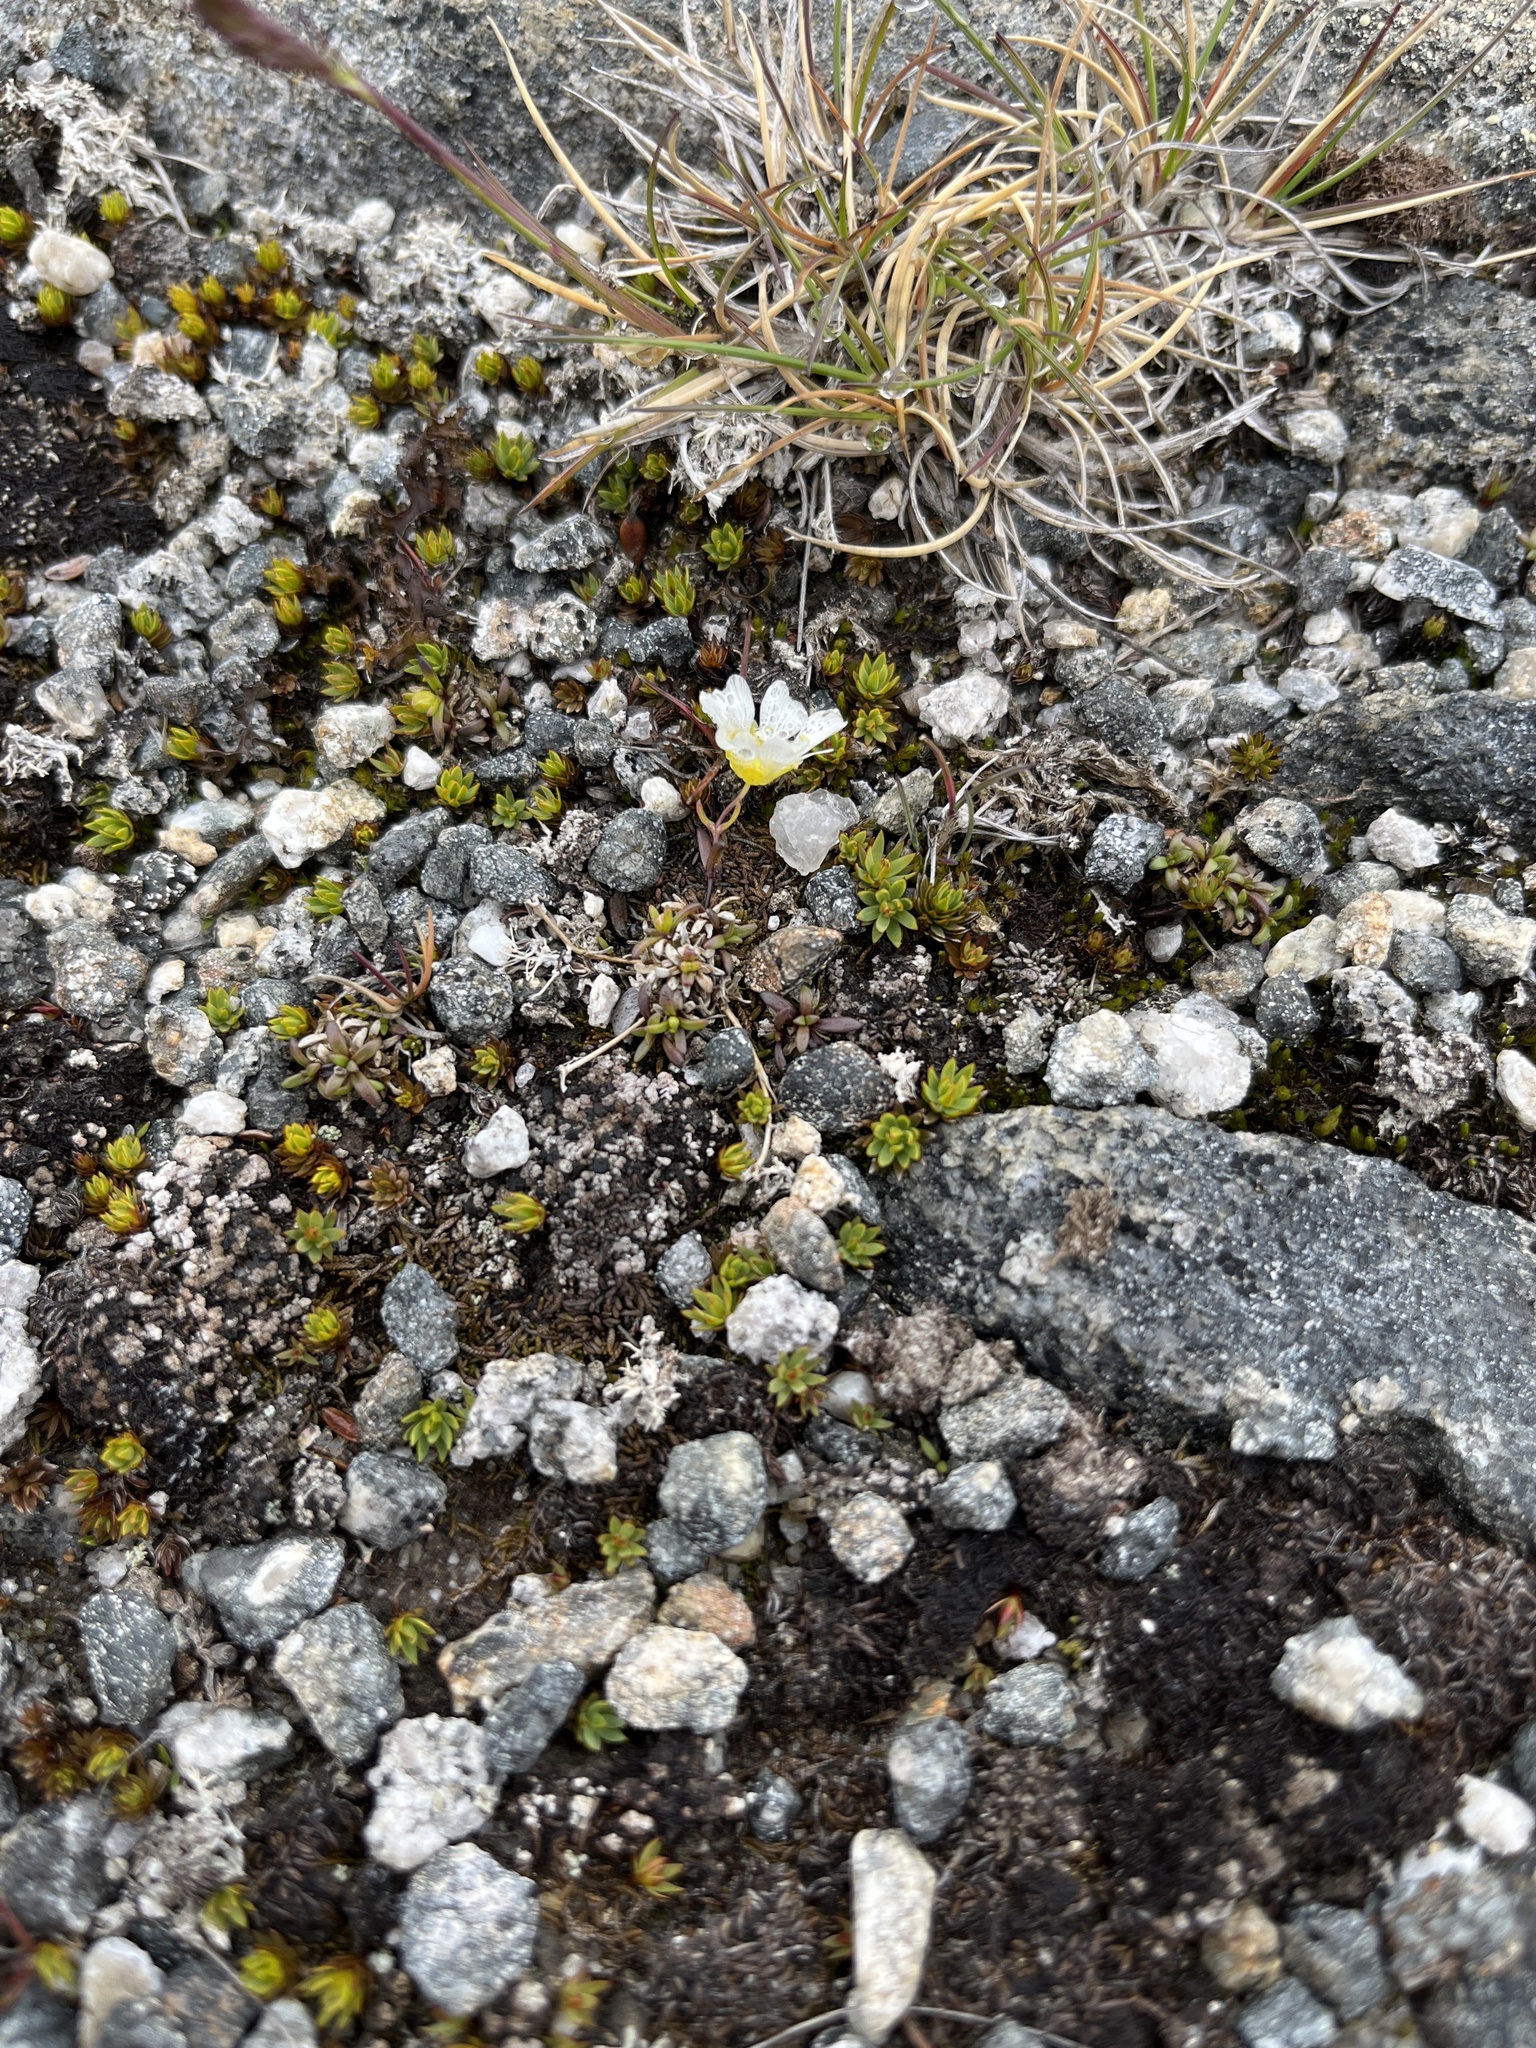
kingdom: Plantae
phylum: Tracheophyta
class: Magnoliopsida
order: Caryophyllales
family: Caryophyllaceae
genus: Geocarpon
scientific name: Geocarpon groenlandicum
